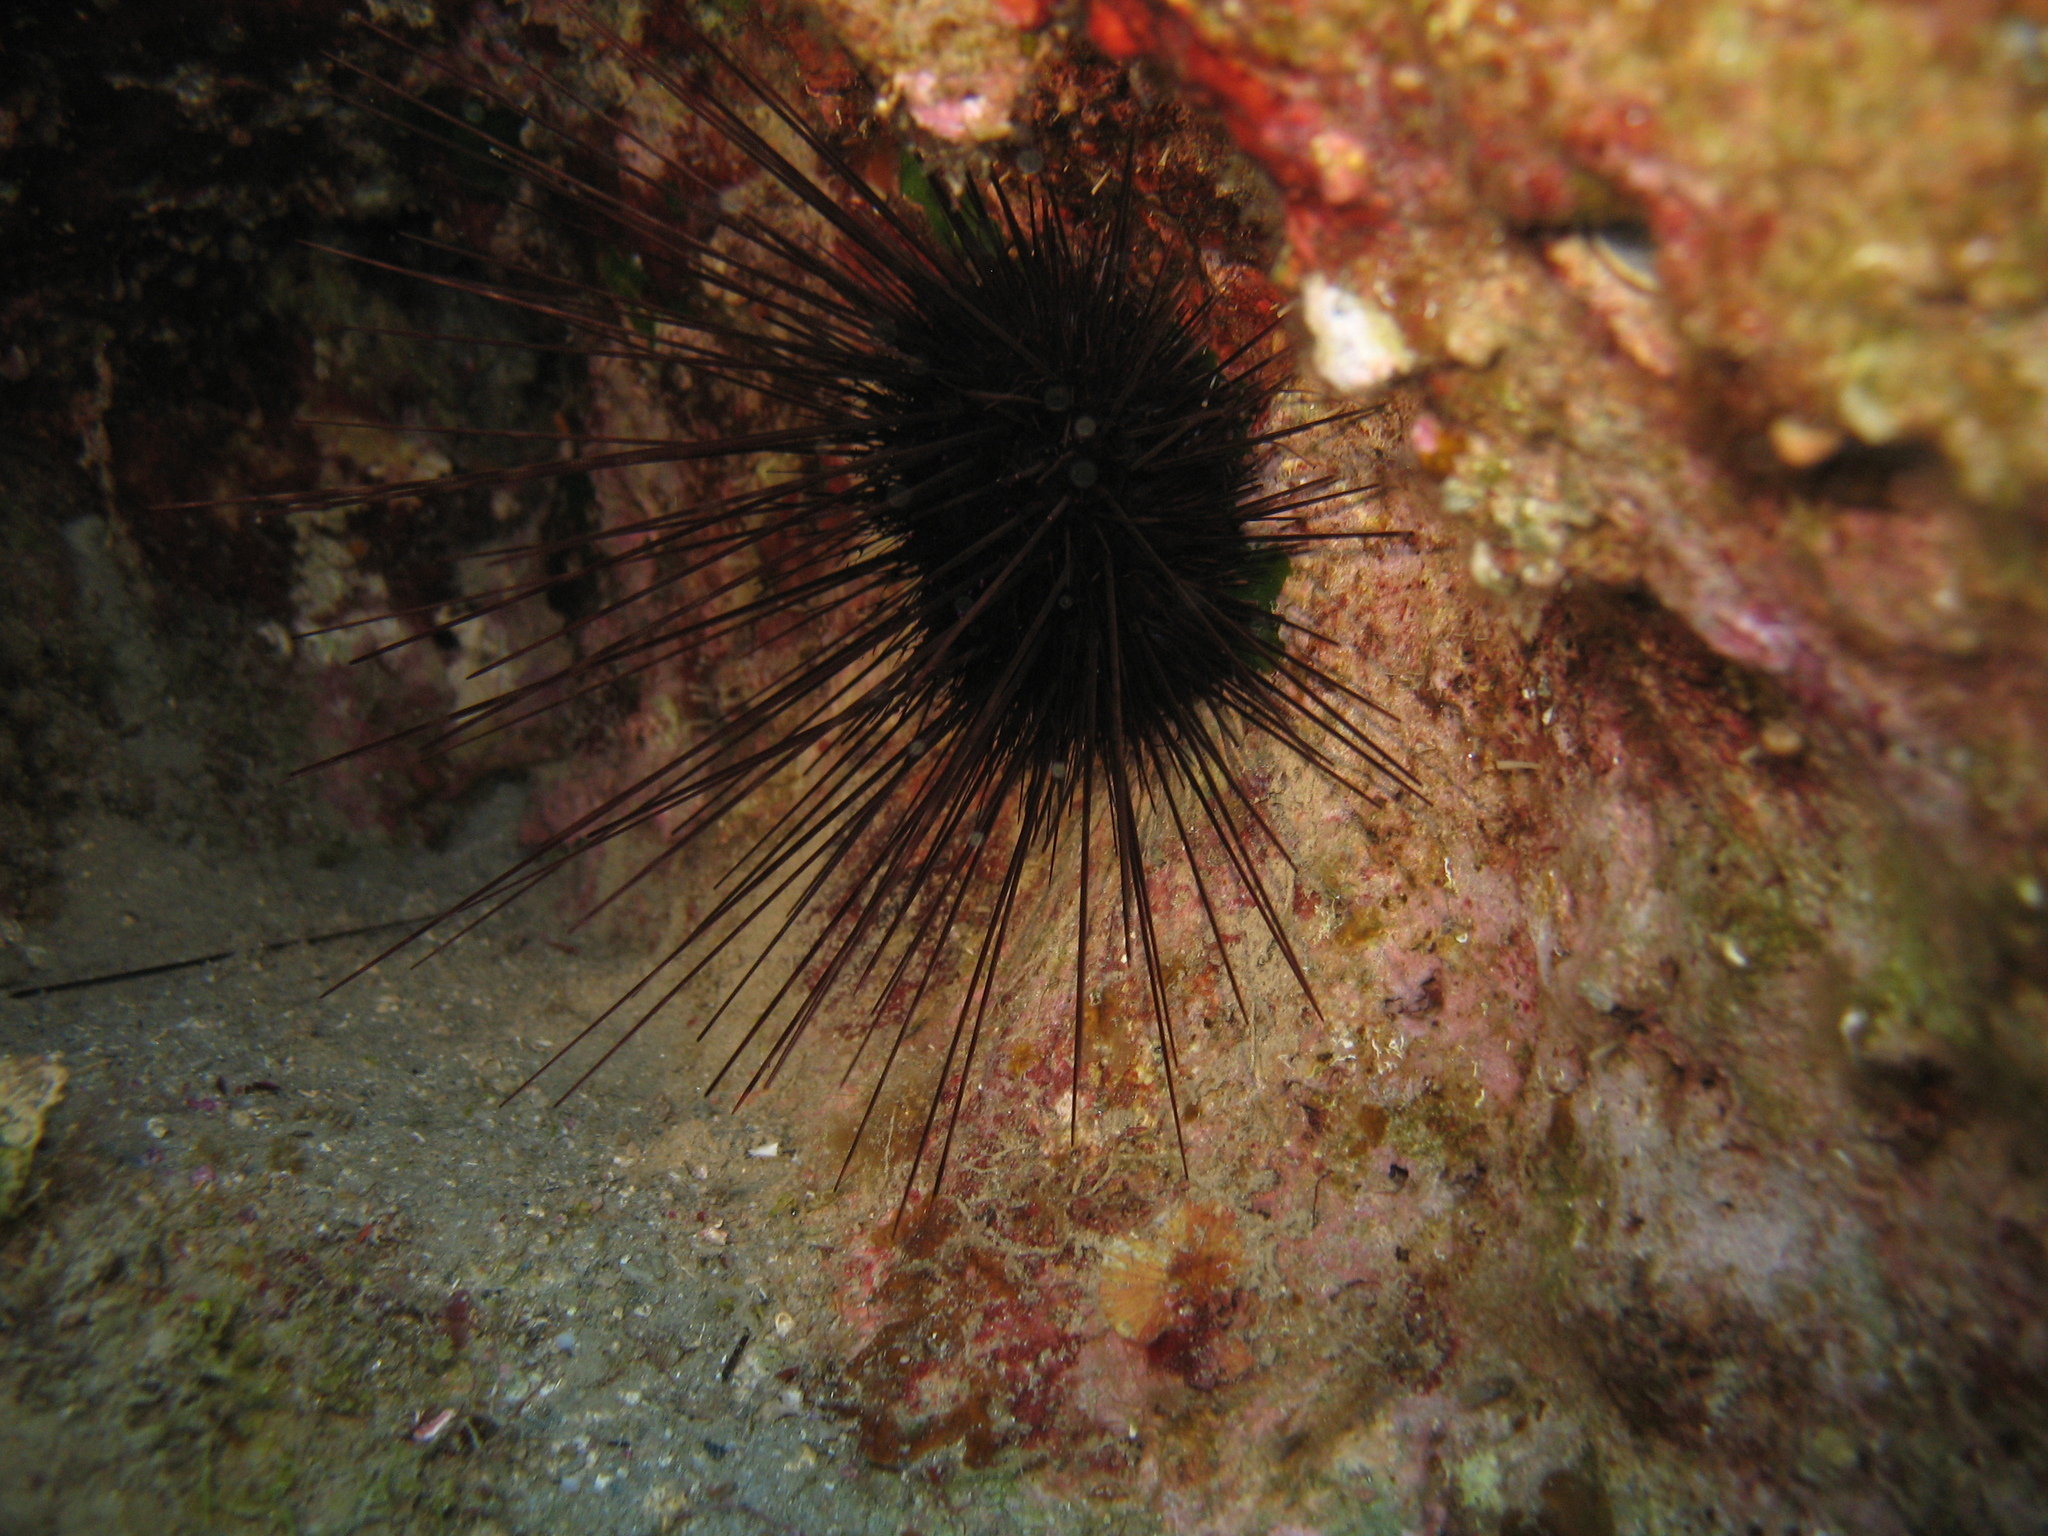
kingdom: Animalia
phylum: Echinodermata
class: Echinoidea
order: Diadematoida
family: Diadematidae
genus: Centrostephanus
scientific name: Centrostephanus longispinus
